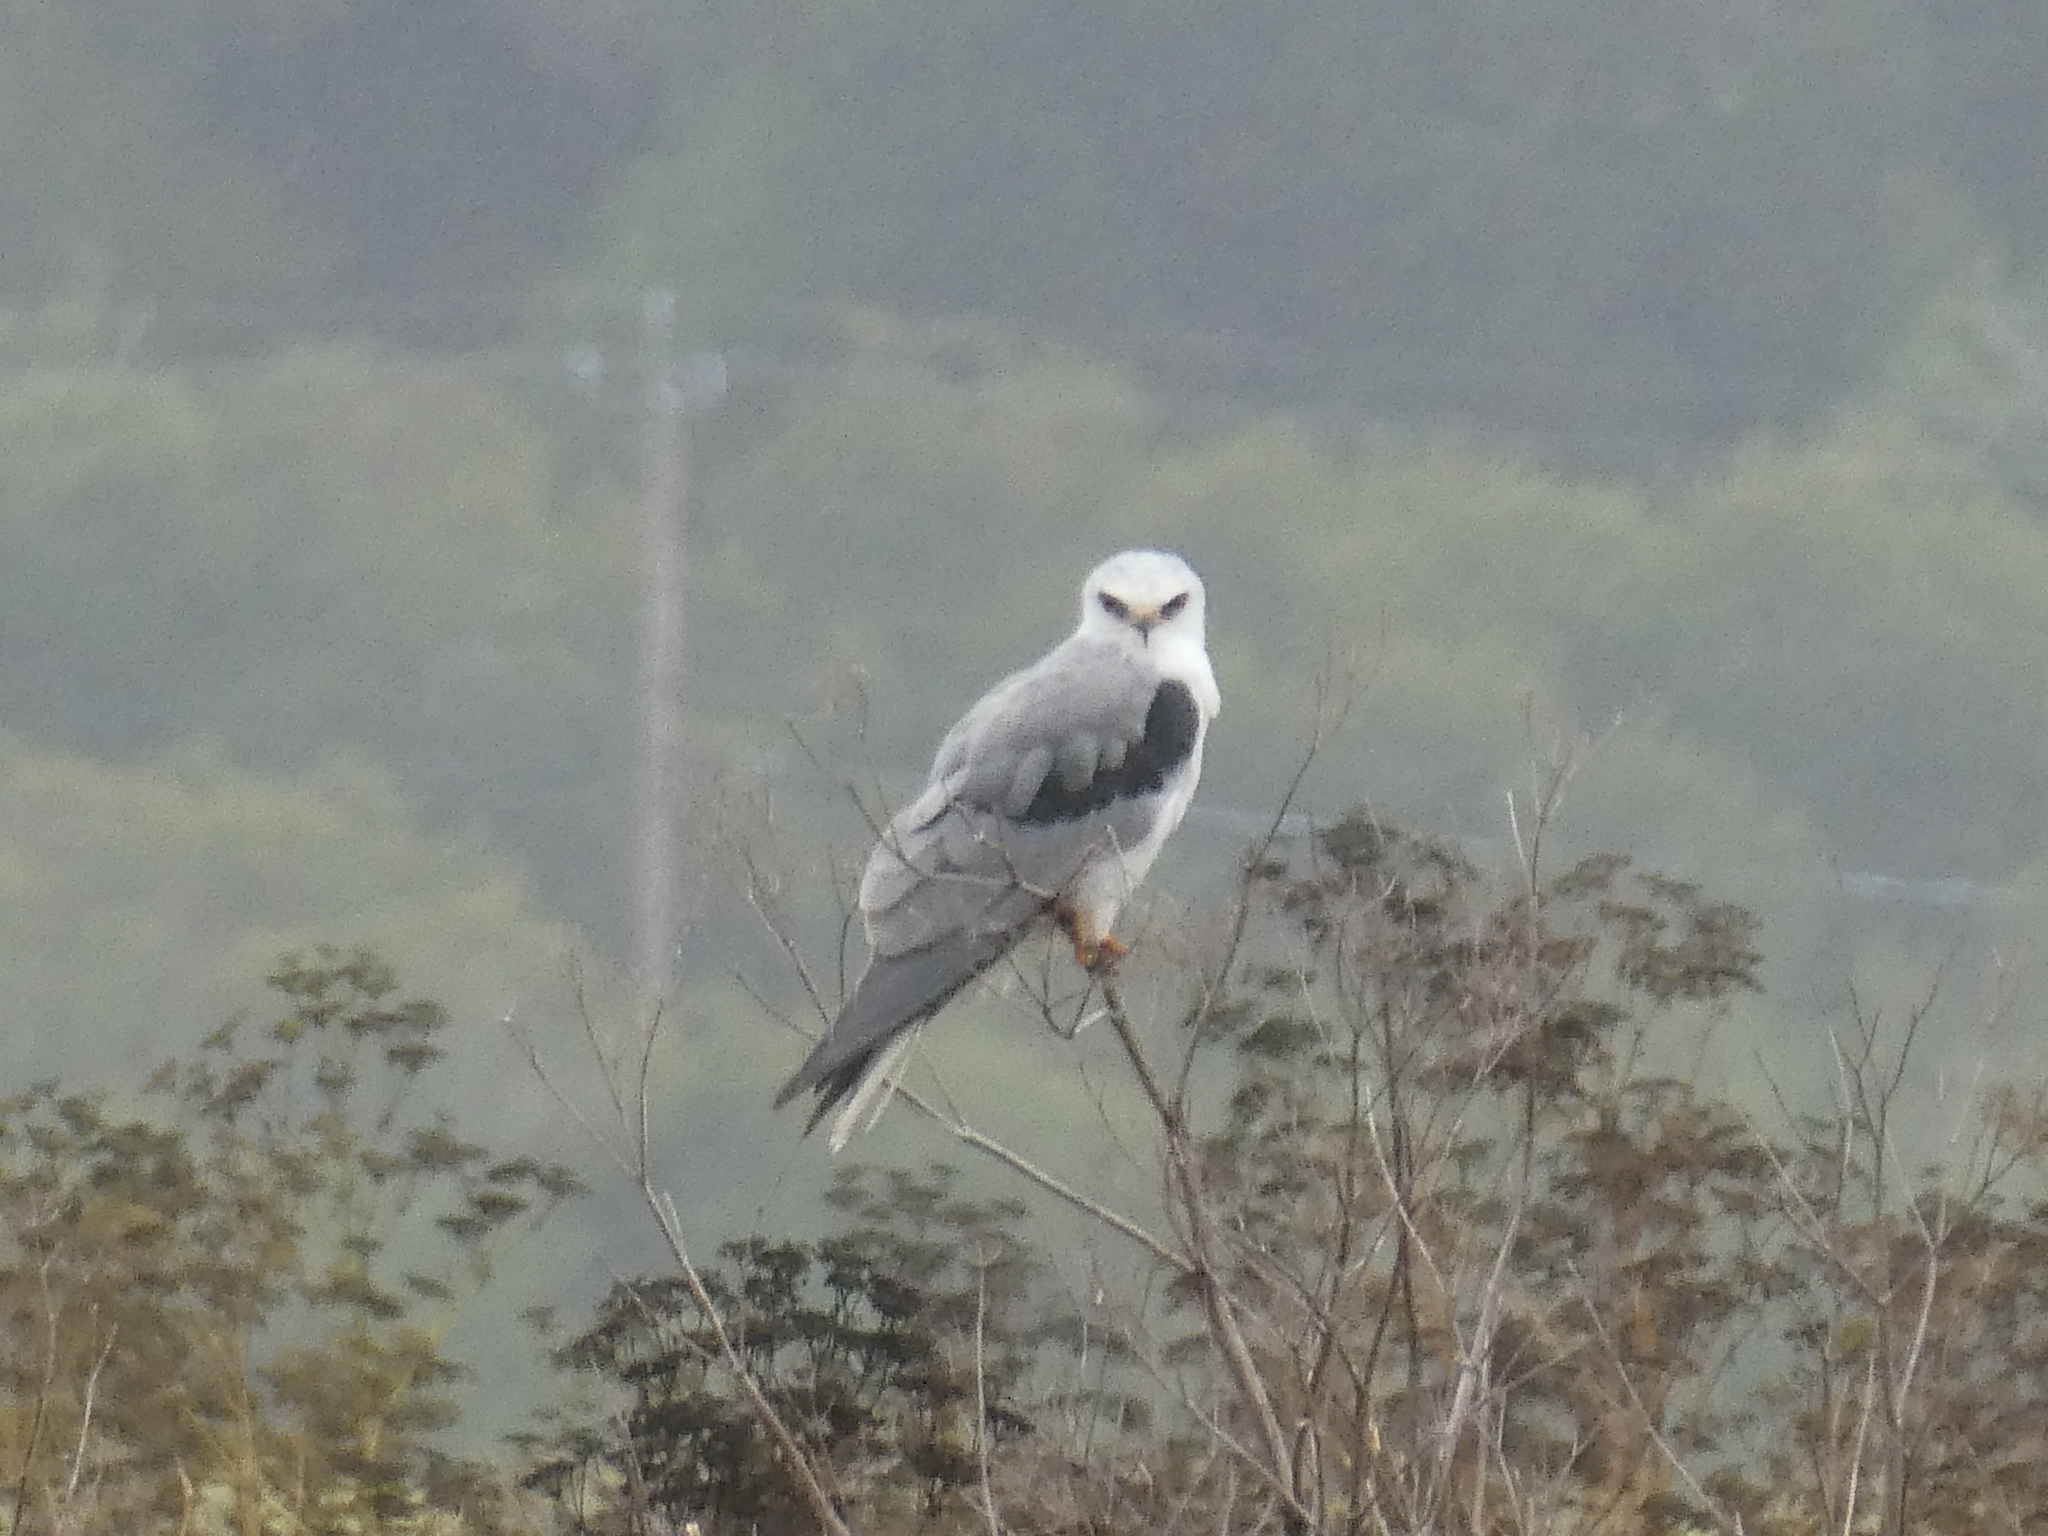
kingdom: Animalia
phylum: Chordata
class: Aves
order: Accipitriformes
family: Accipitridae
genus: Elanus
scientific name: Elanus leucurus
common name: White-tailed kite
